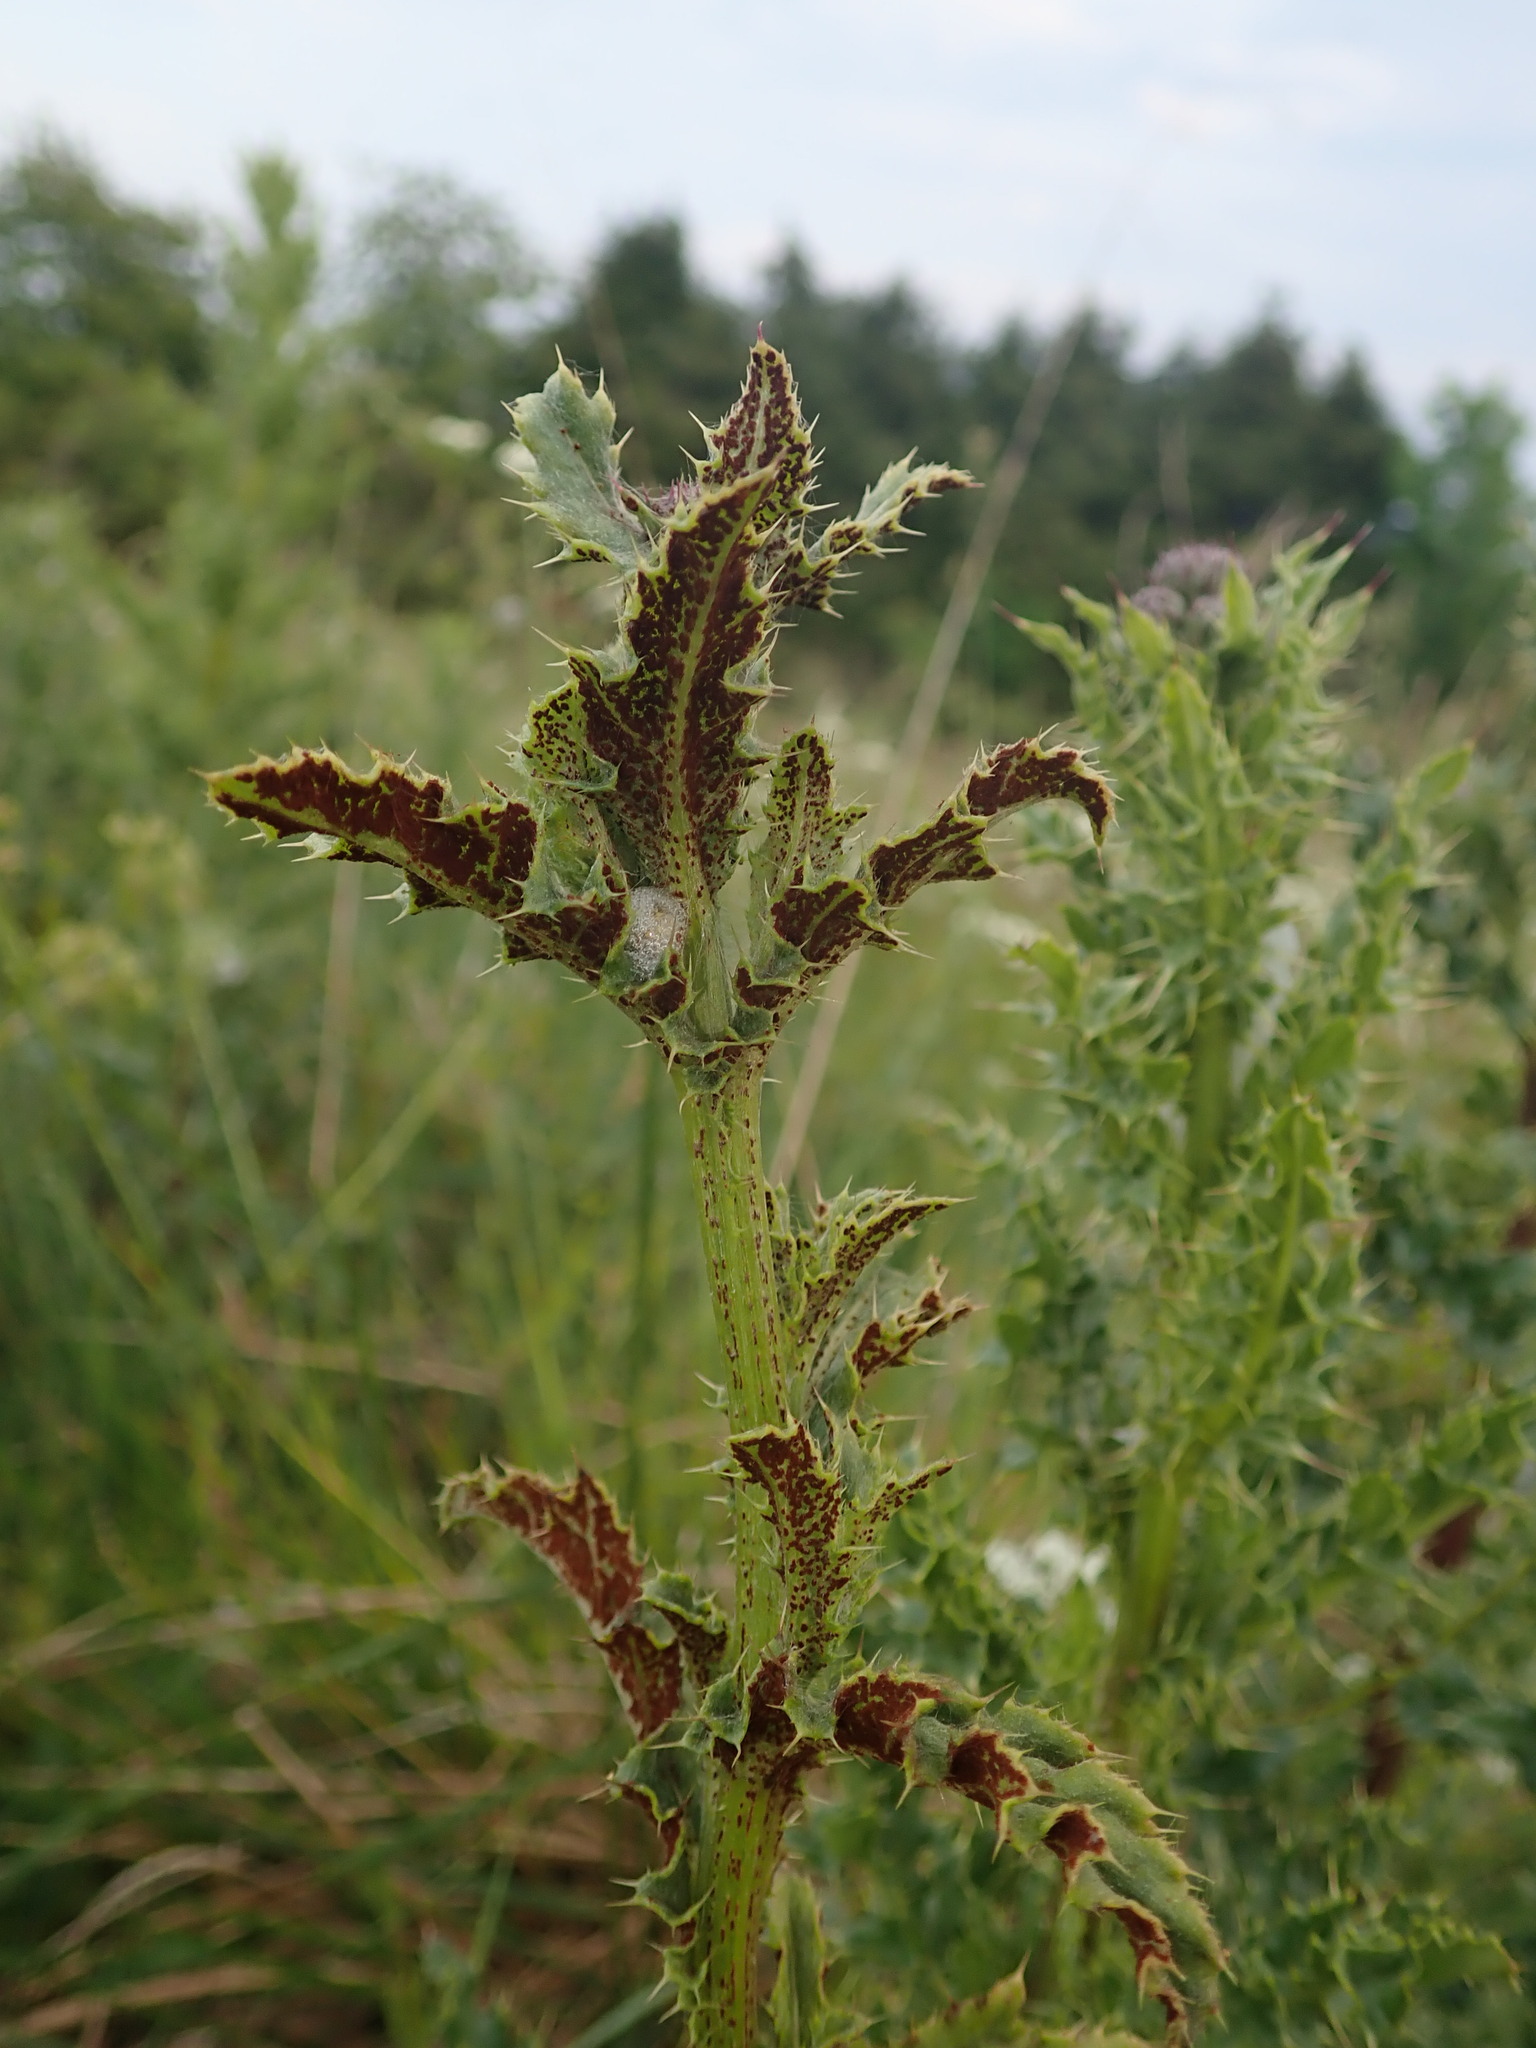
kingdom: Fungi
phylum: Basidiomycota
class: Pucciniomycetes
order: Pucciniales
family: Pucciniaceae
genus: Puccinia
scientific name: Puccinia suaveolens
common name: Thistle rust
